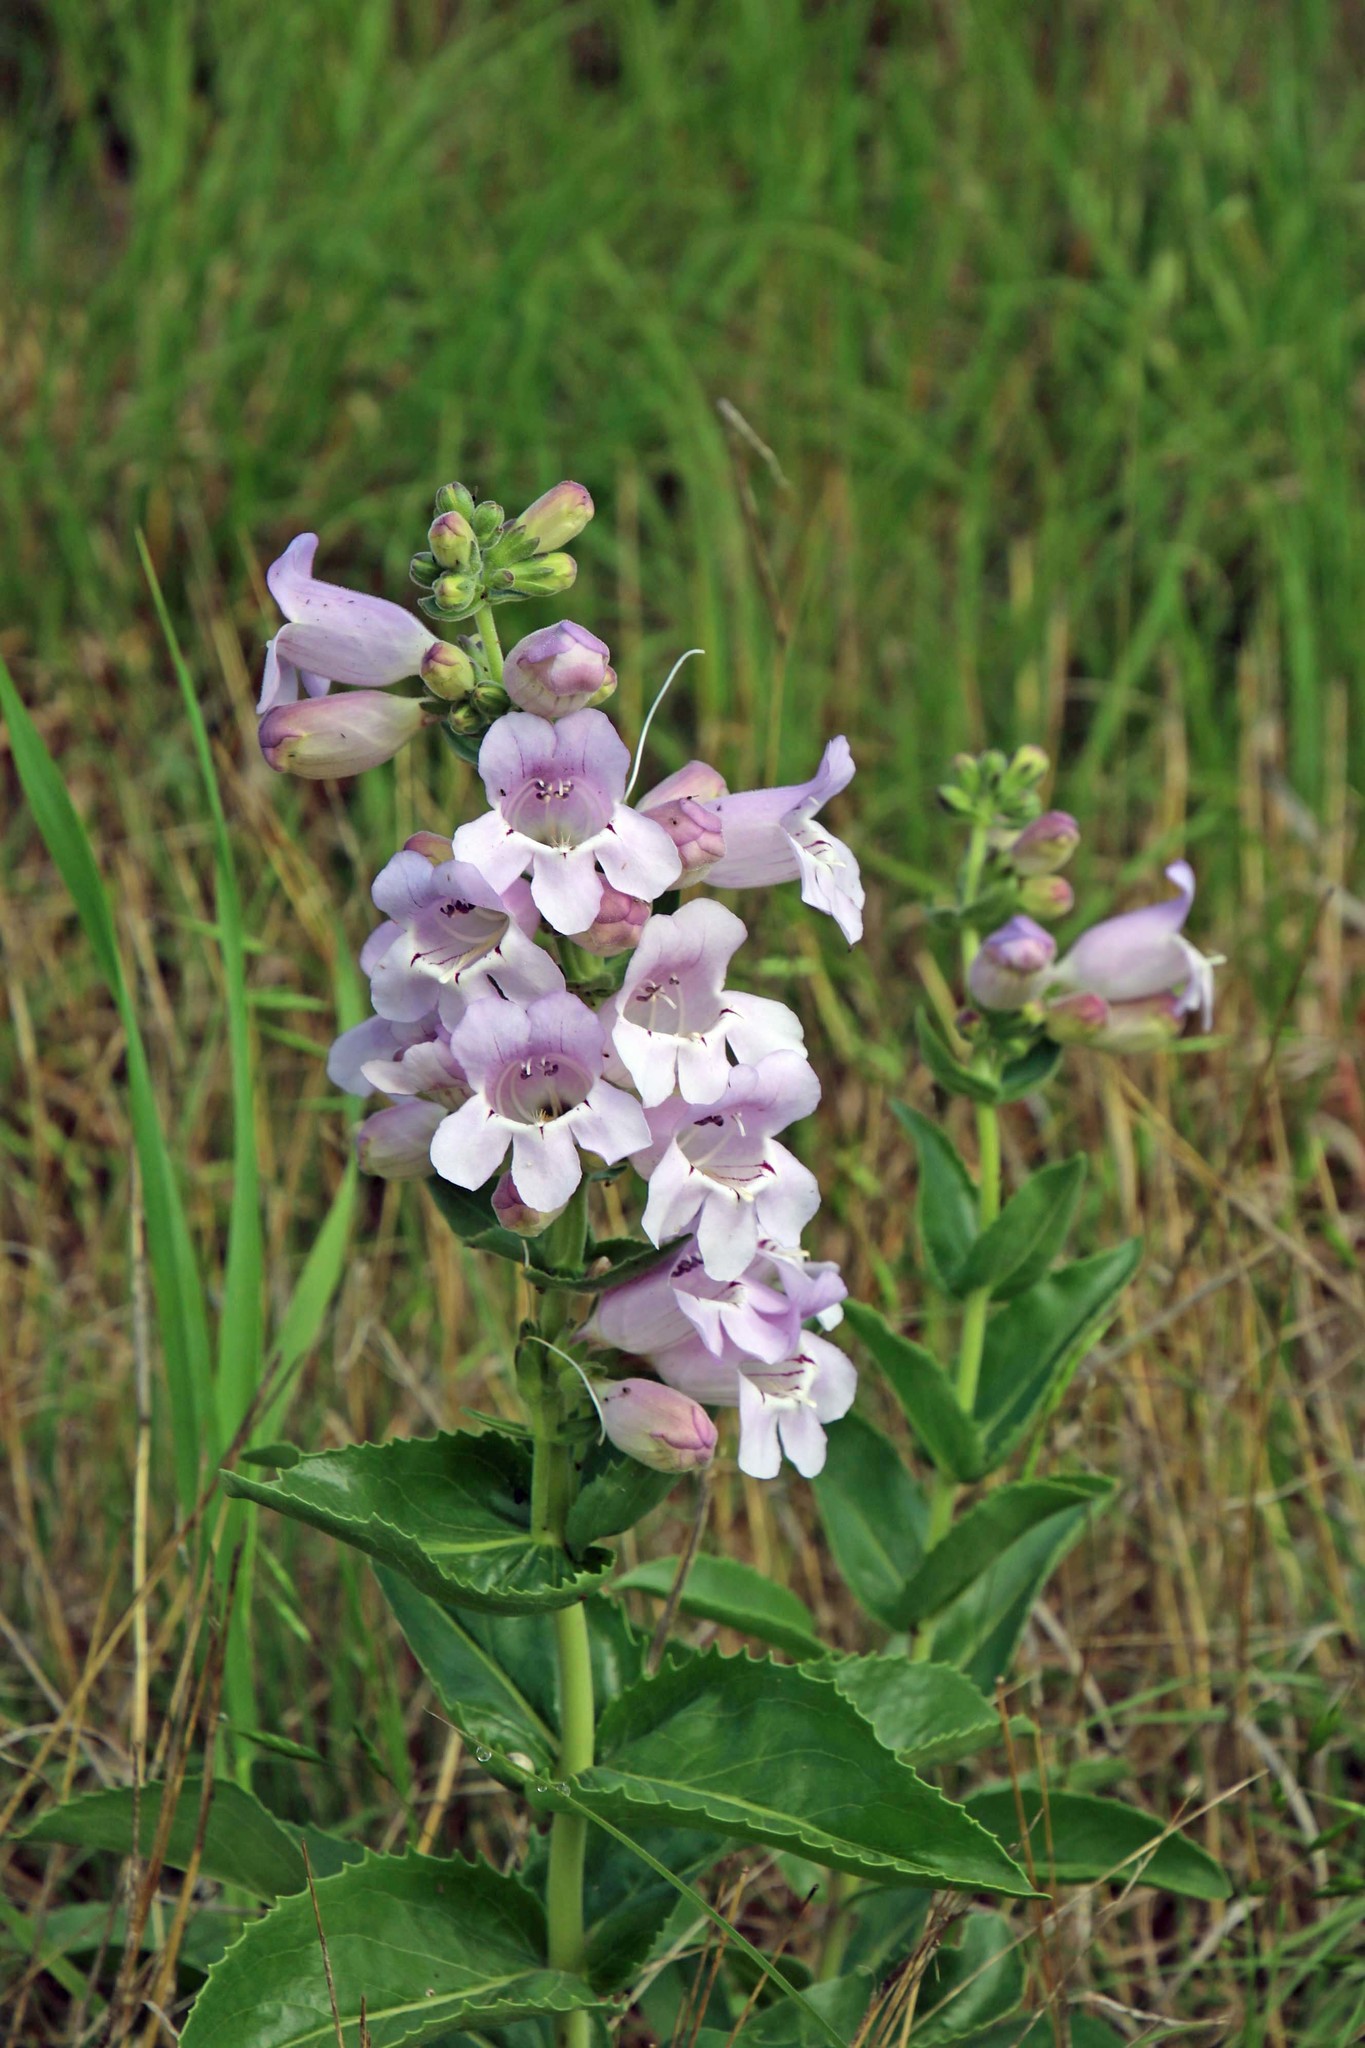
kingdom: Plantae
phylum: Tracheophyta
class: Magnoliopsida
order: Lamiales
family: Plantaginaceae
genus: Penstemon
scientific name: Penstemon cobaea
